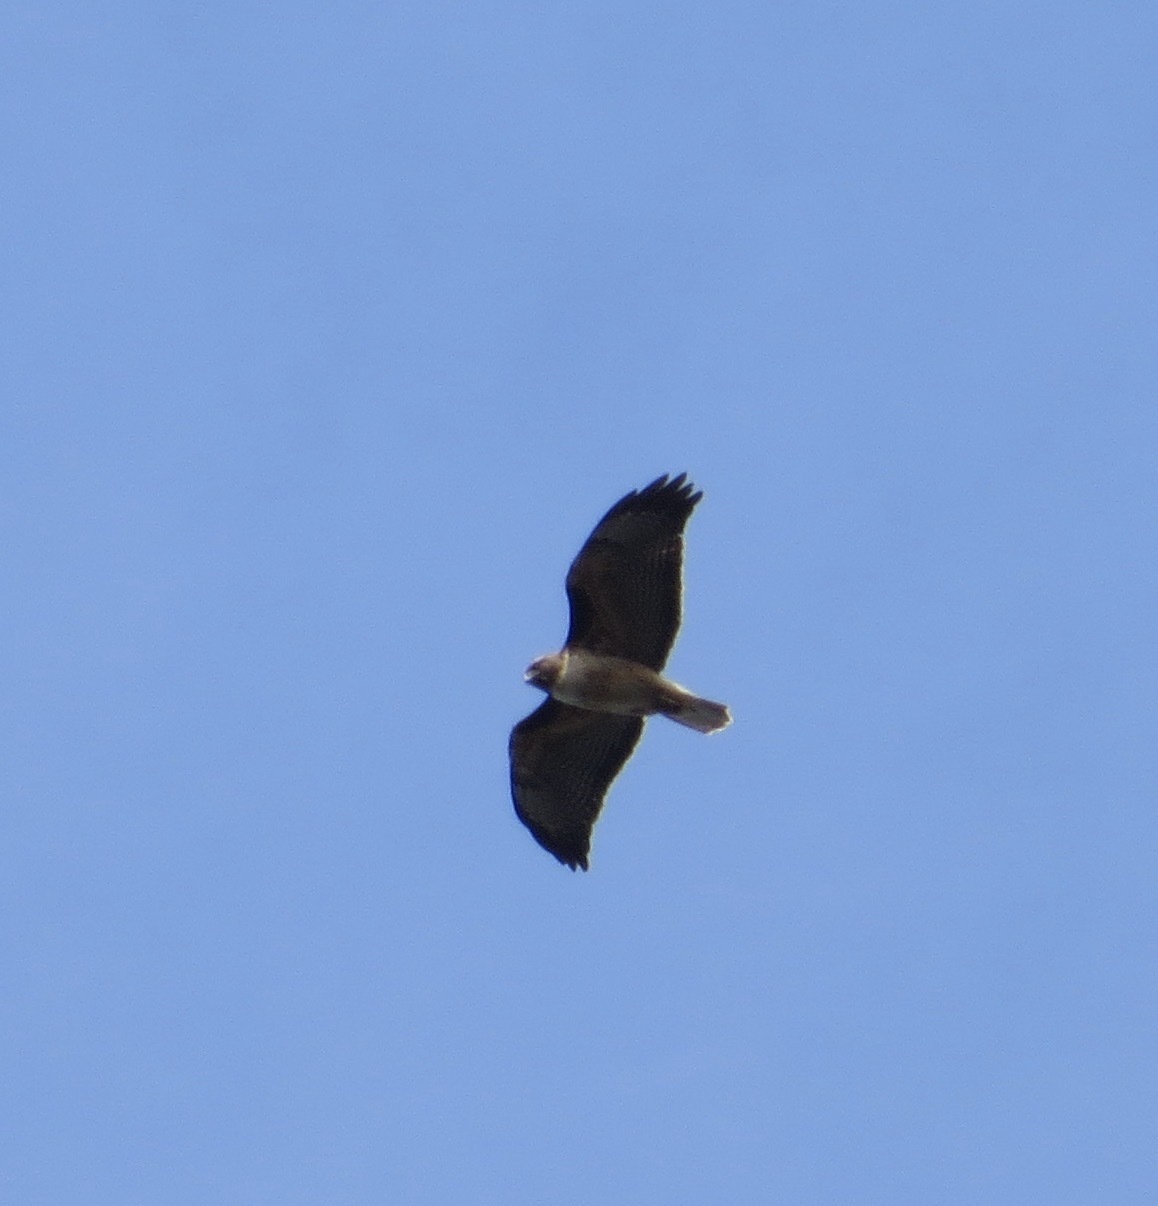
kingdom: Animalia
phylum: Chordata
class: Aves
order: Accipitriformes
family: Accipitridae
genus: Buteo
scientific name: Buteo jamaicensis
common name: Red-tailed hawk
